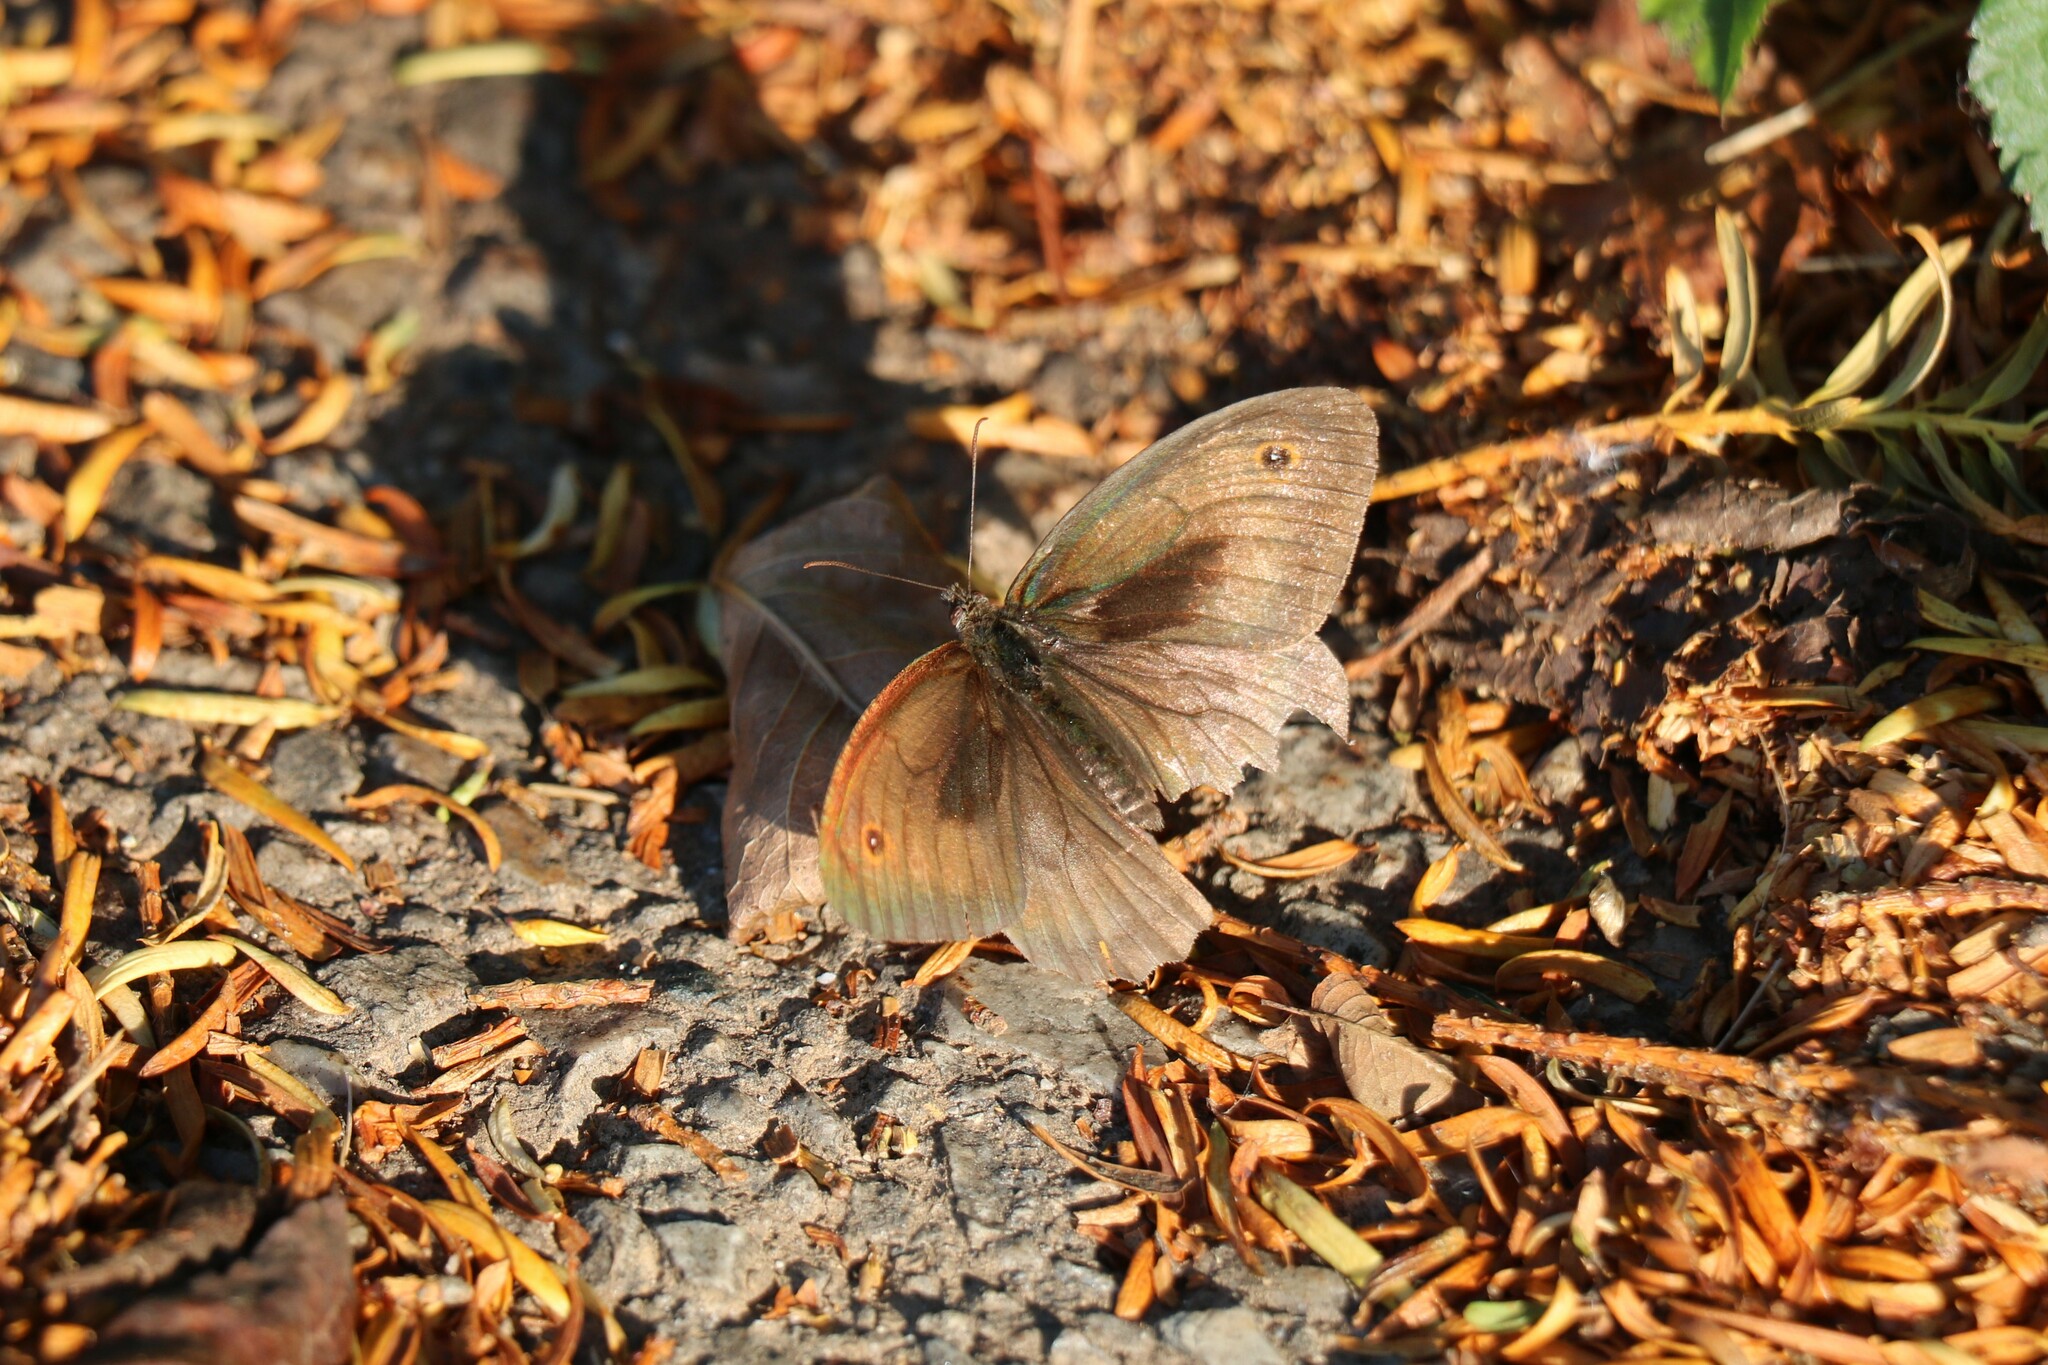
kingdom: Animalia
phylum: Arthropoda
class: Insecta
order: Lepidoptera
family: Nymphalidae
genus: Maniola
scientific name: Maniola jurtina
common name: Meadow brown
